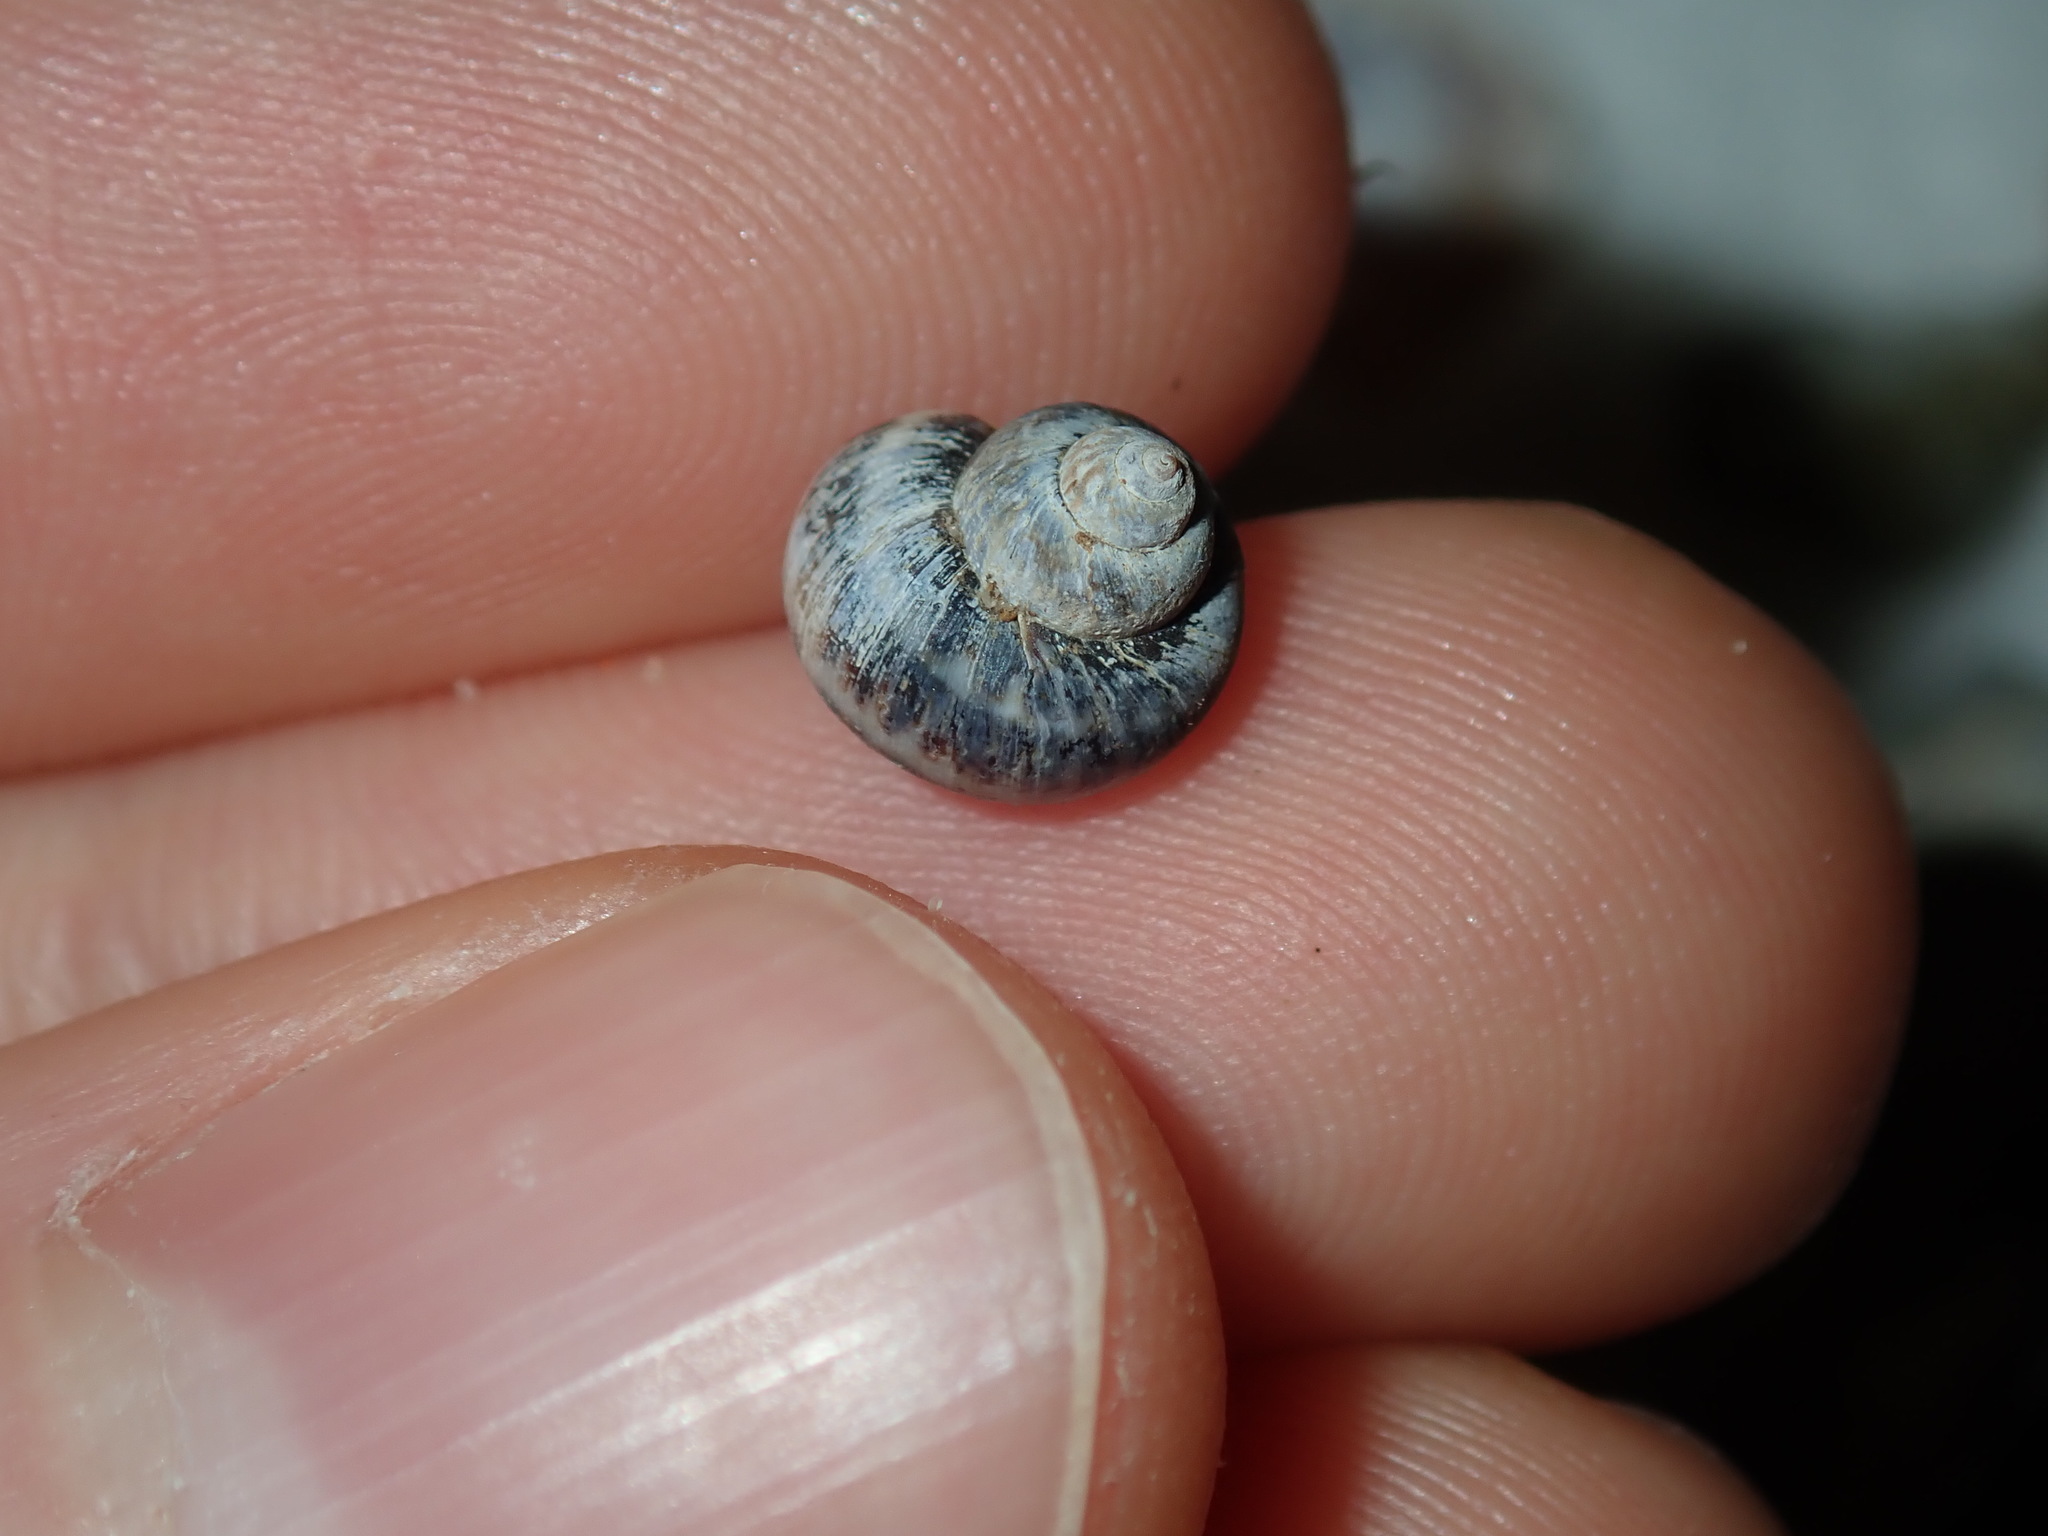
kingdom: Animalia
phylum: Mollusca
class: Gastropoda
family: Amphibolidae
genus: Phallomedusa
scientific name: Phallomedusa solida
